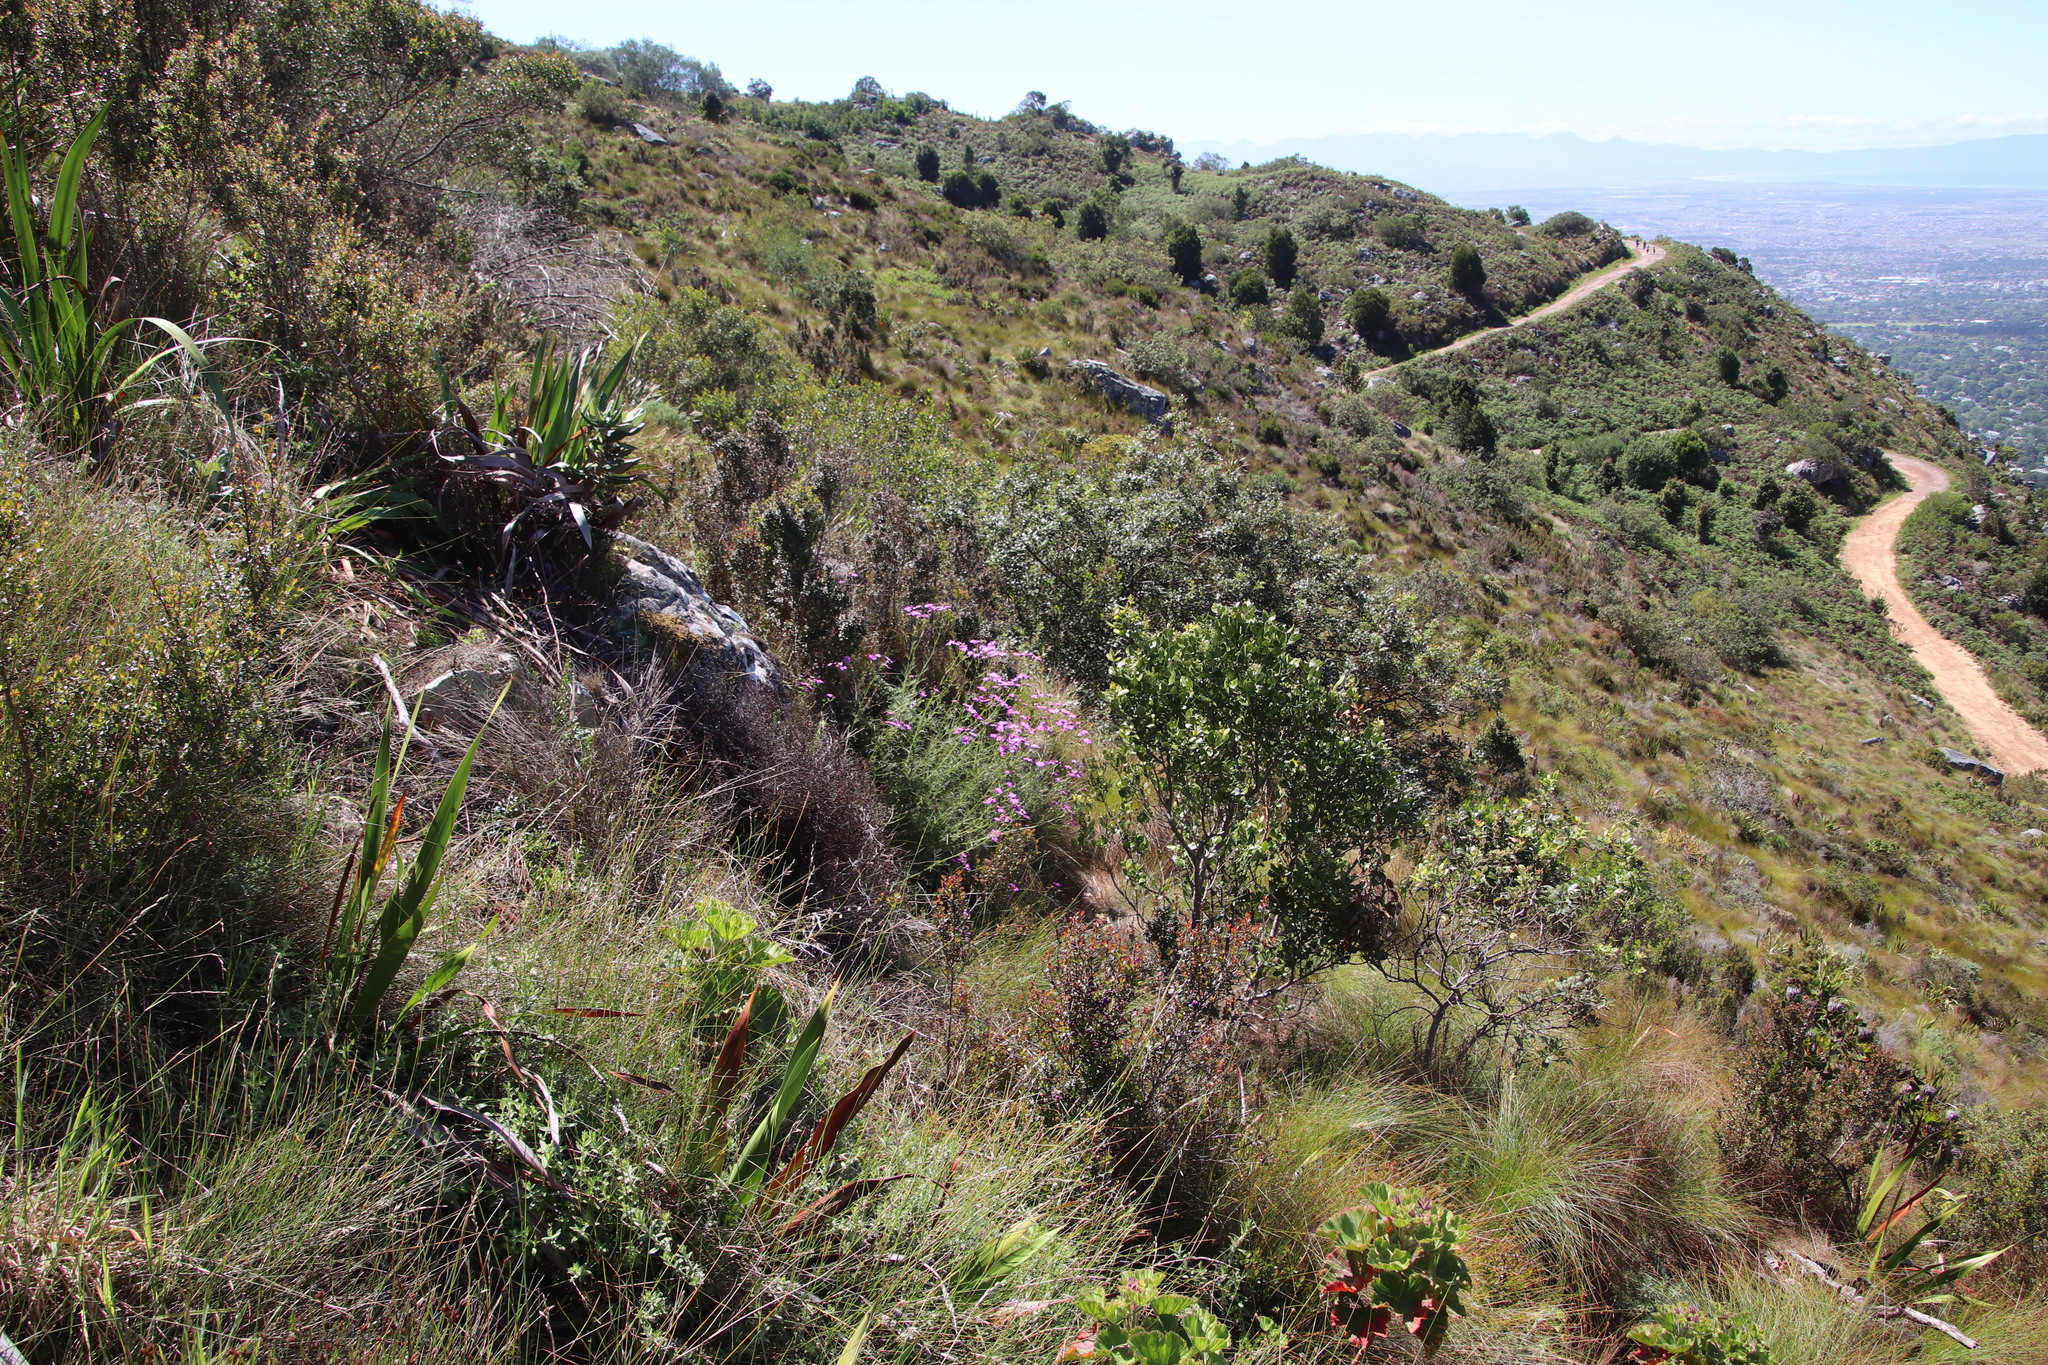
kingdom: Plantae
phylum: Tracheophyta
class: Magnoliopsida
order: Asterales
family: Asteraceae
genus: Senecio
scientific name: Senecio umbellatus
